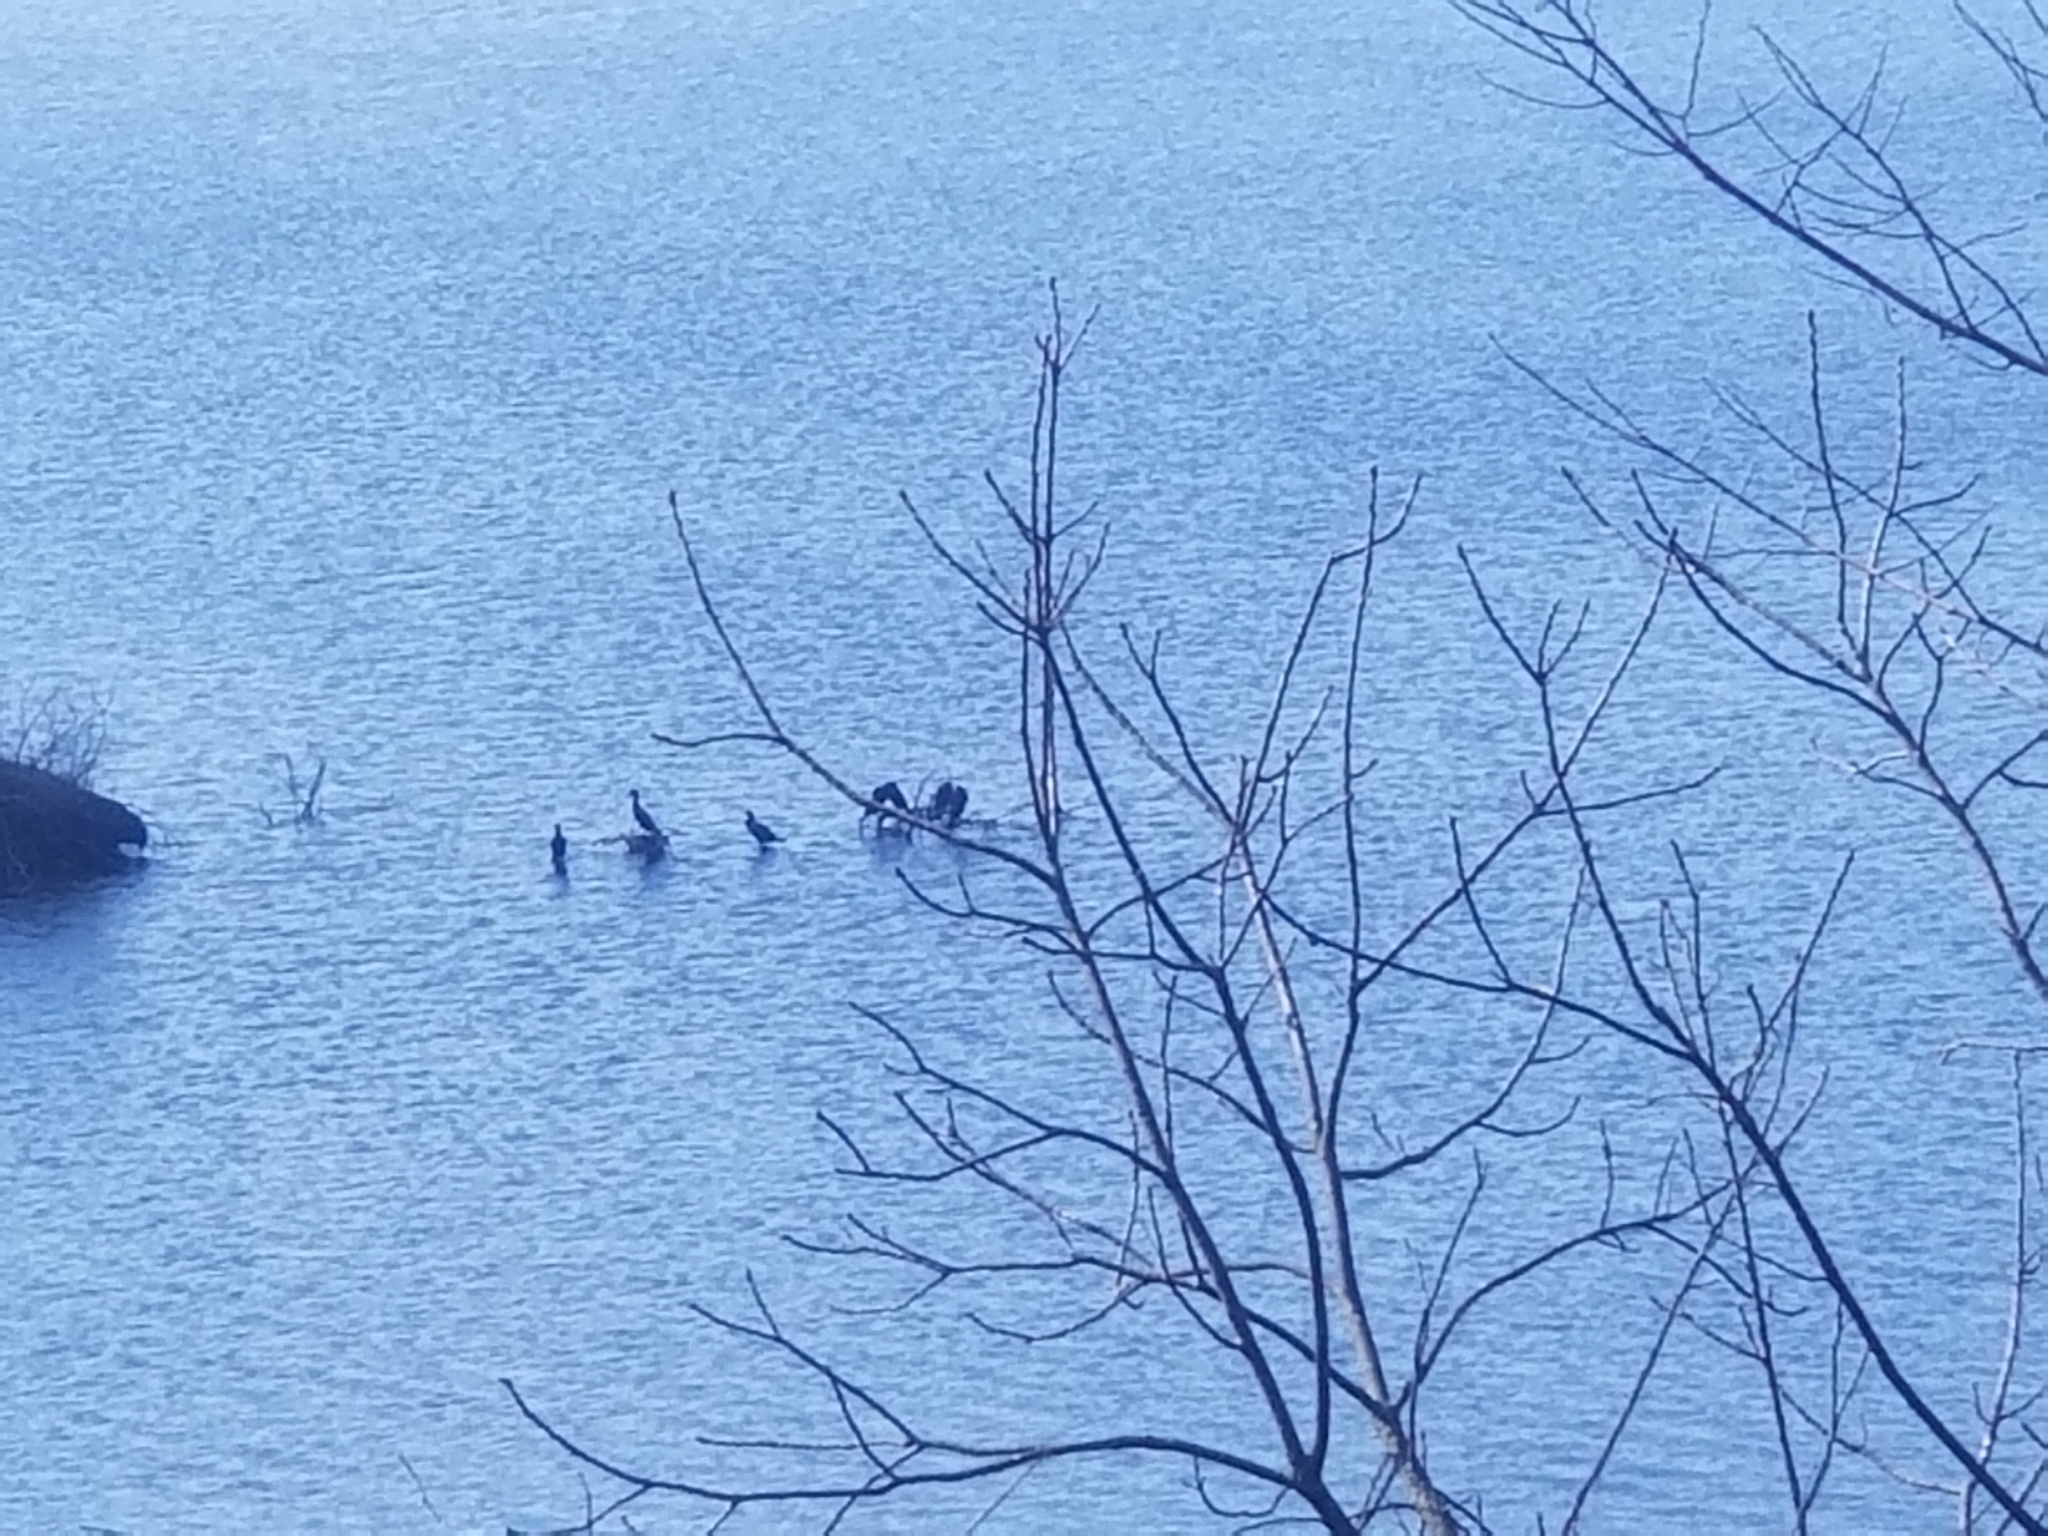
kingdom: Animalia
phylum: Chordata
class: Aves
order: Suliformes
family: Phalacrocoracidae
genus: Phalacrocorax
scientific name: Phalacrocorax auritus
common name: Double-crested cormorant
